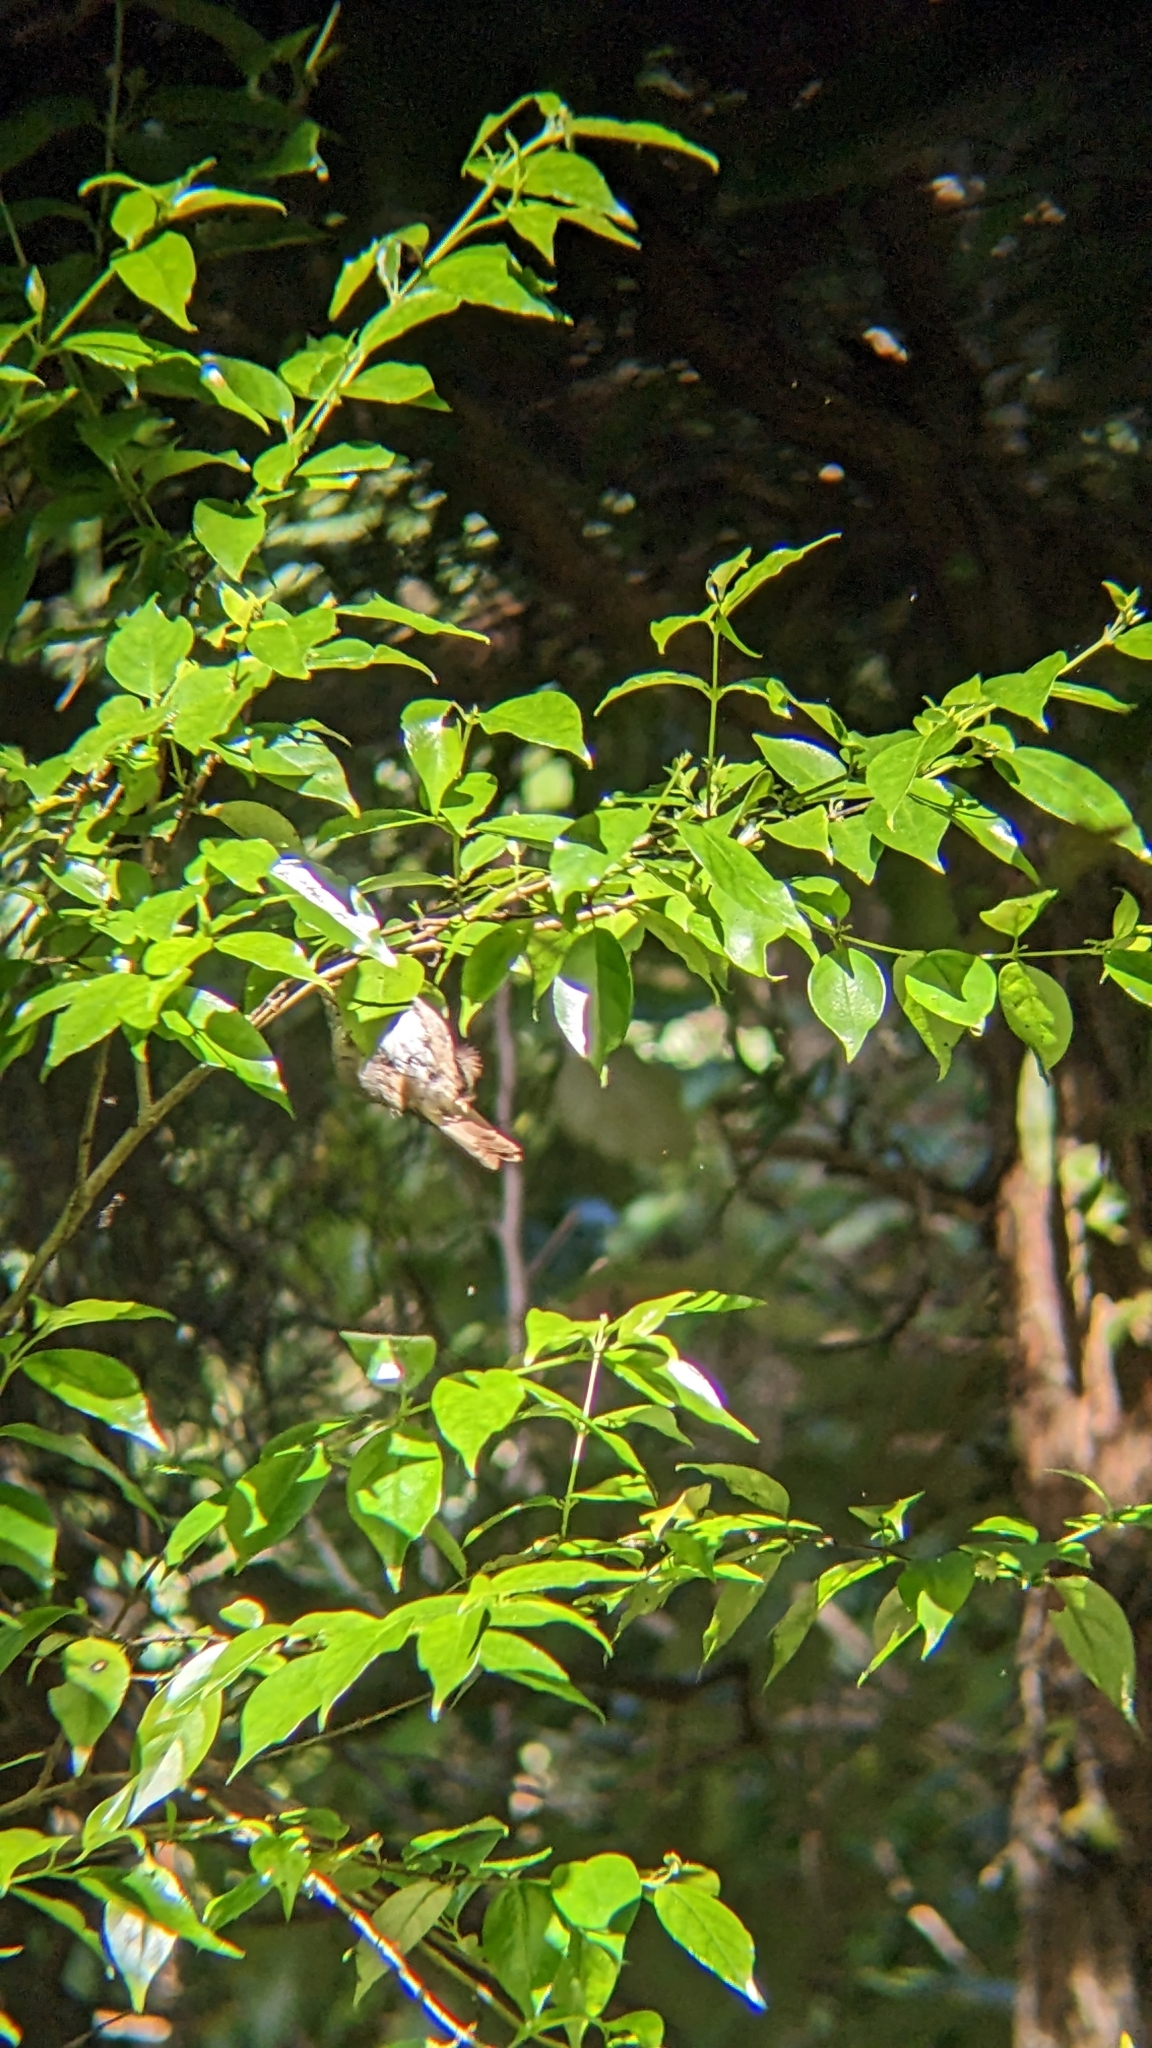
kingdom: Animalia
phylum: Chordata
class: Aves
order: Passeriformes
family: Acanthizidae
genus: Mohoua
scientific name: Mohoua albicilla
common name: Whitehead
